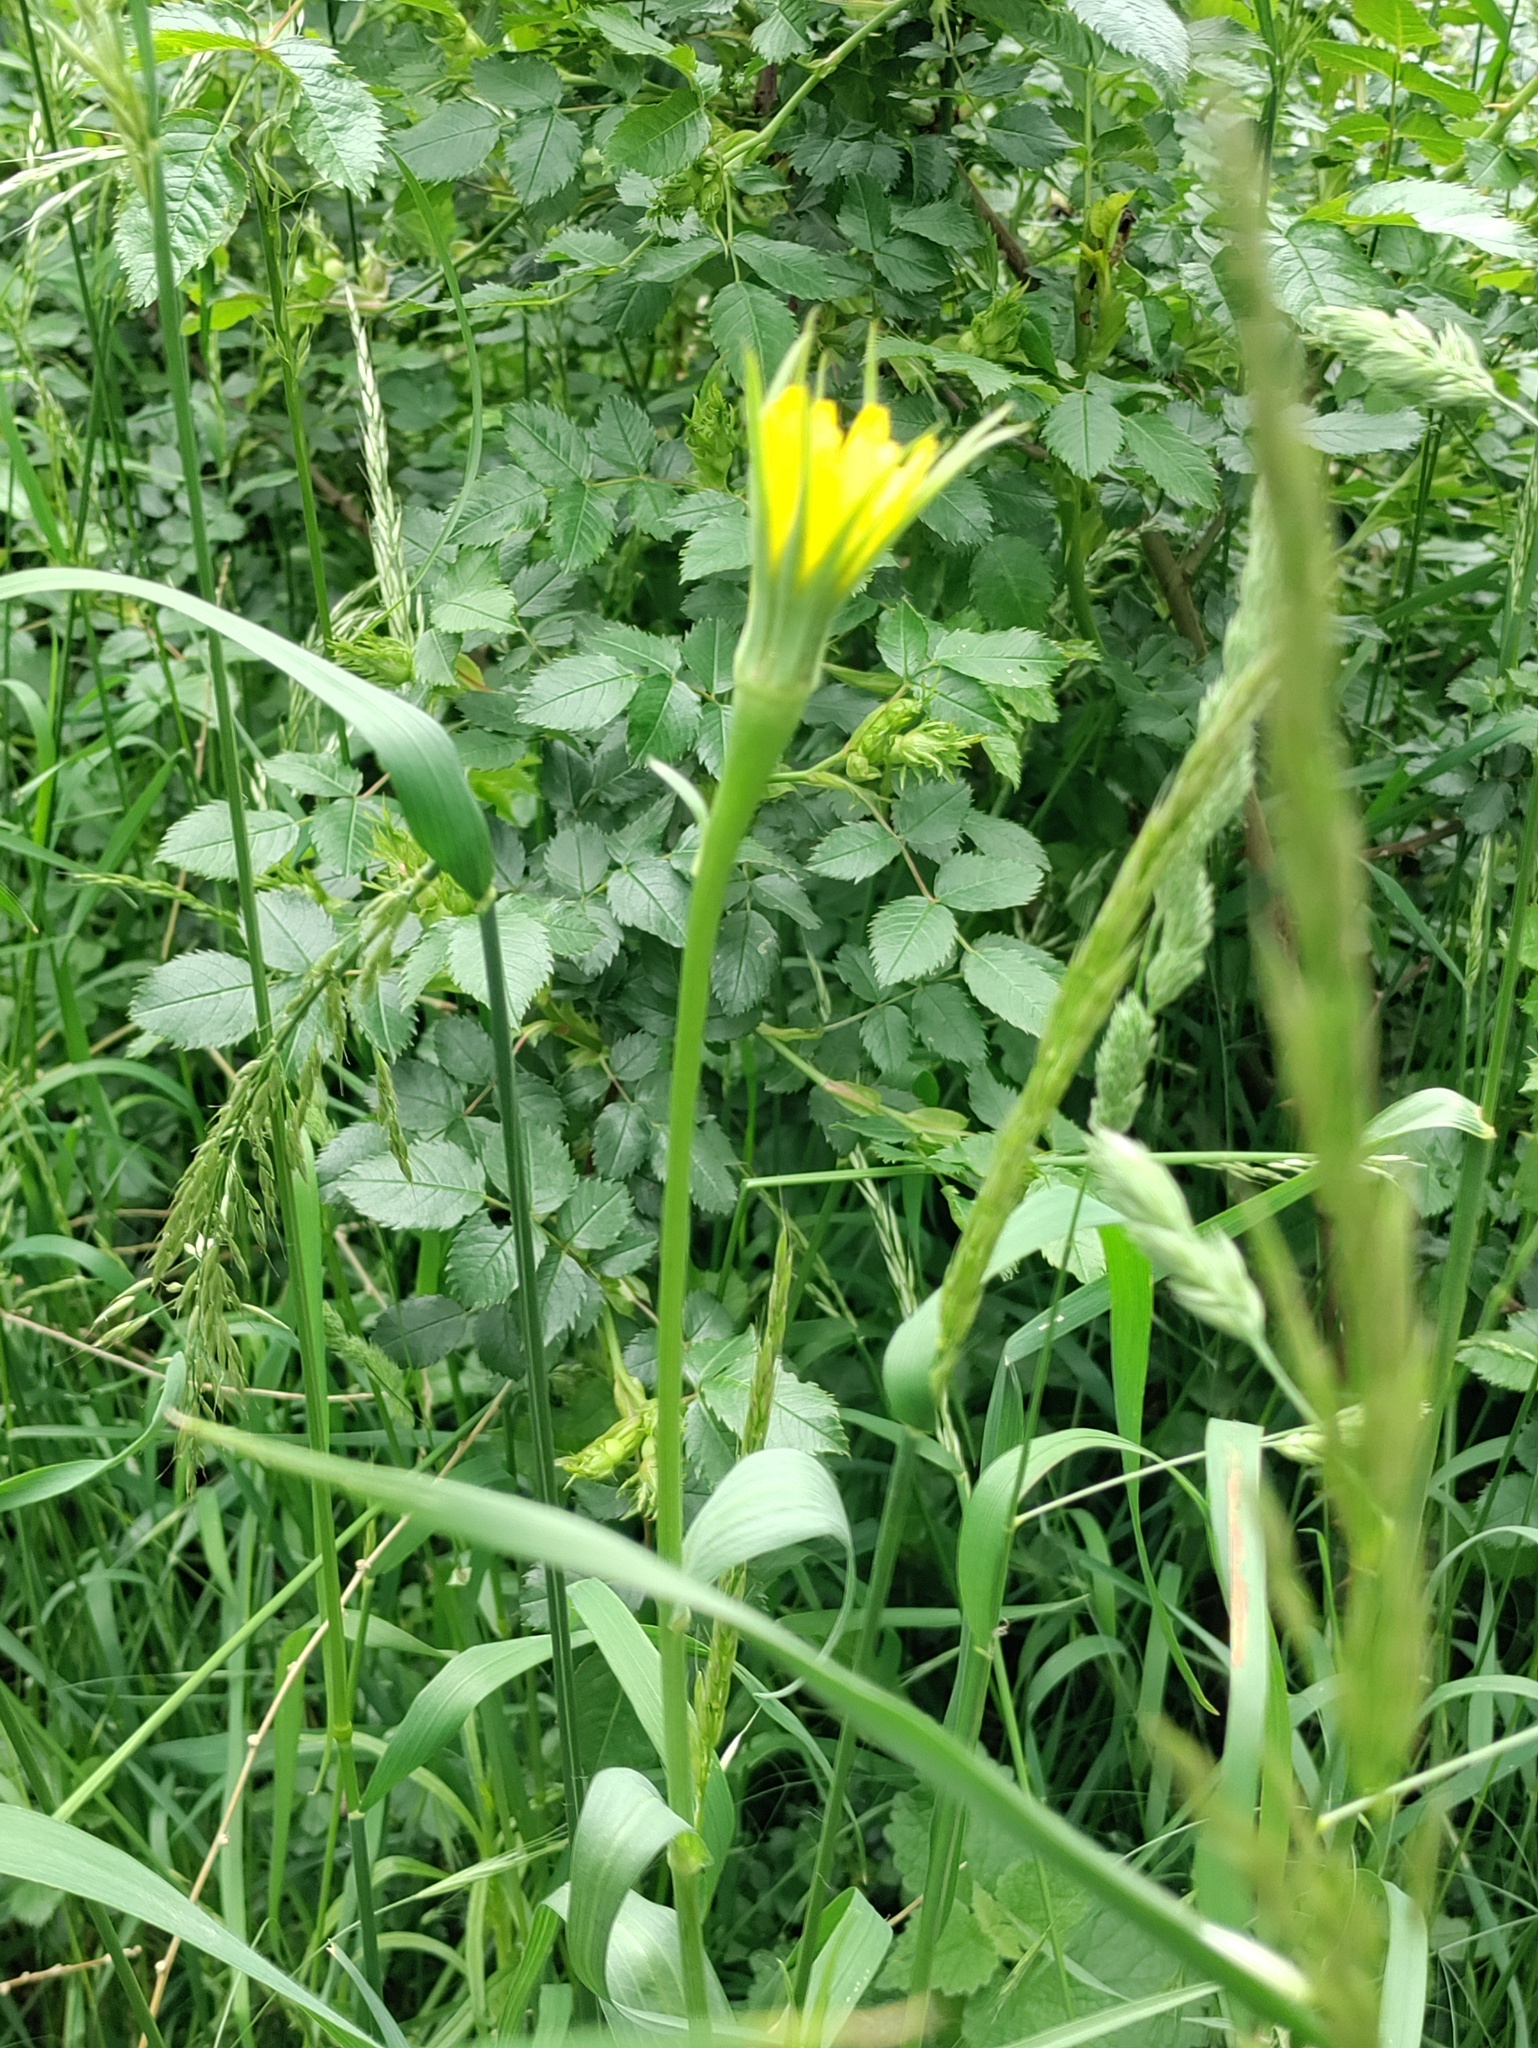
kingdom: Plantae
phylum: Tracheophyta
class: Magnoliopsida
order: Asterales
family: Asteraceae
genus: Tragopogon
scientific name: Tragopogon dubius
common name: Yellow salsify
